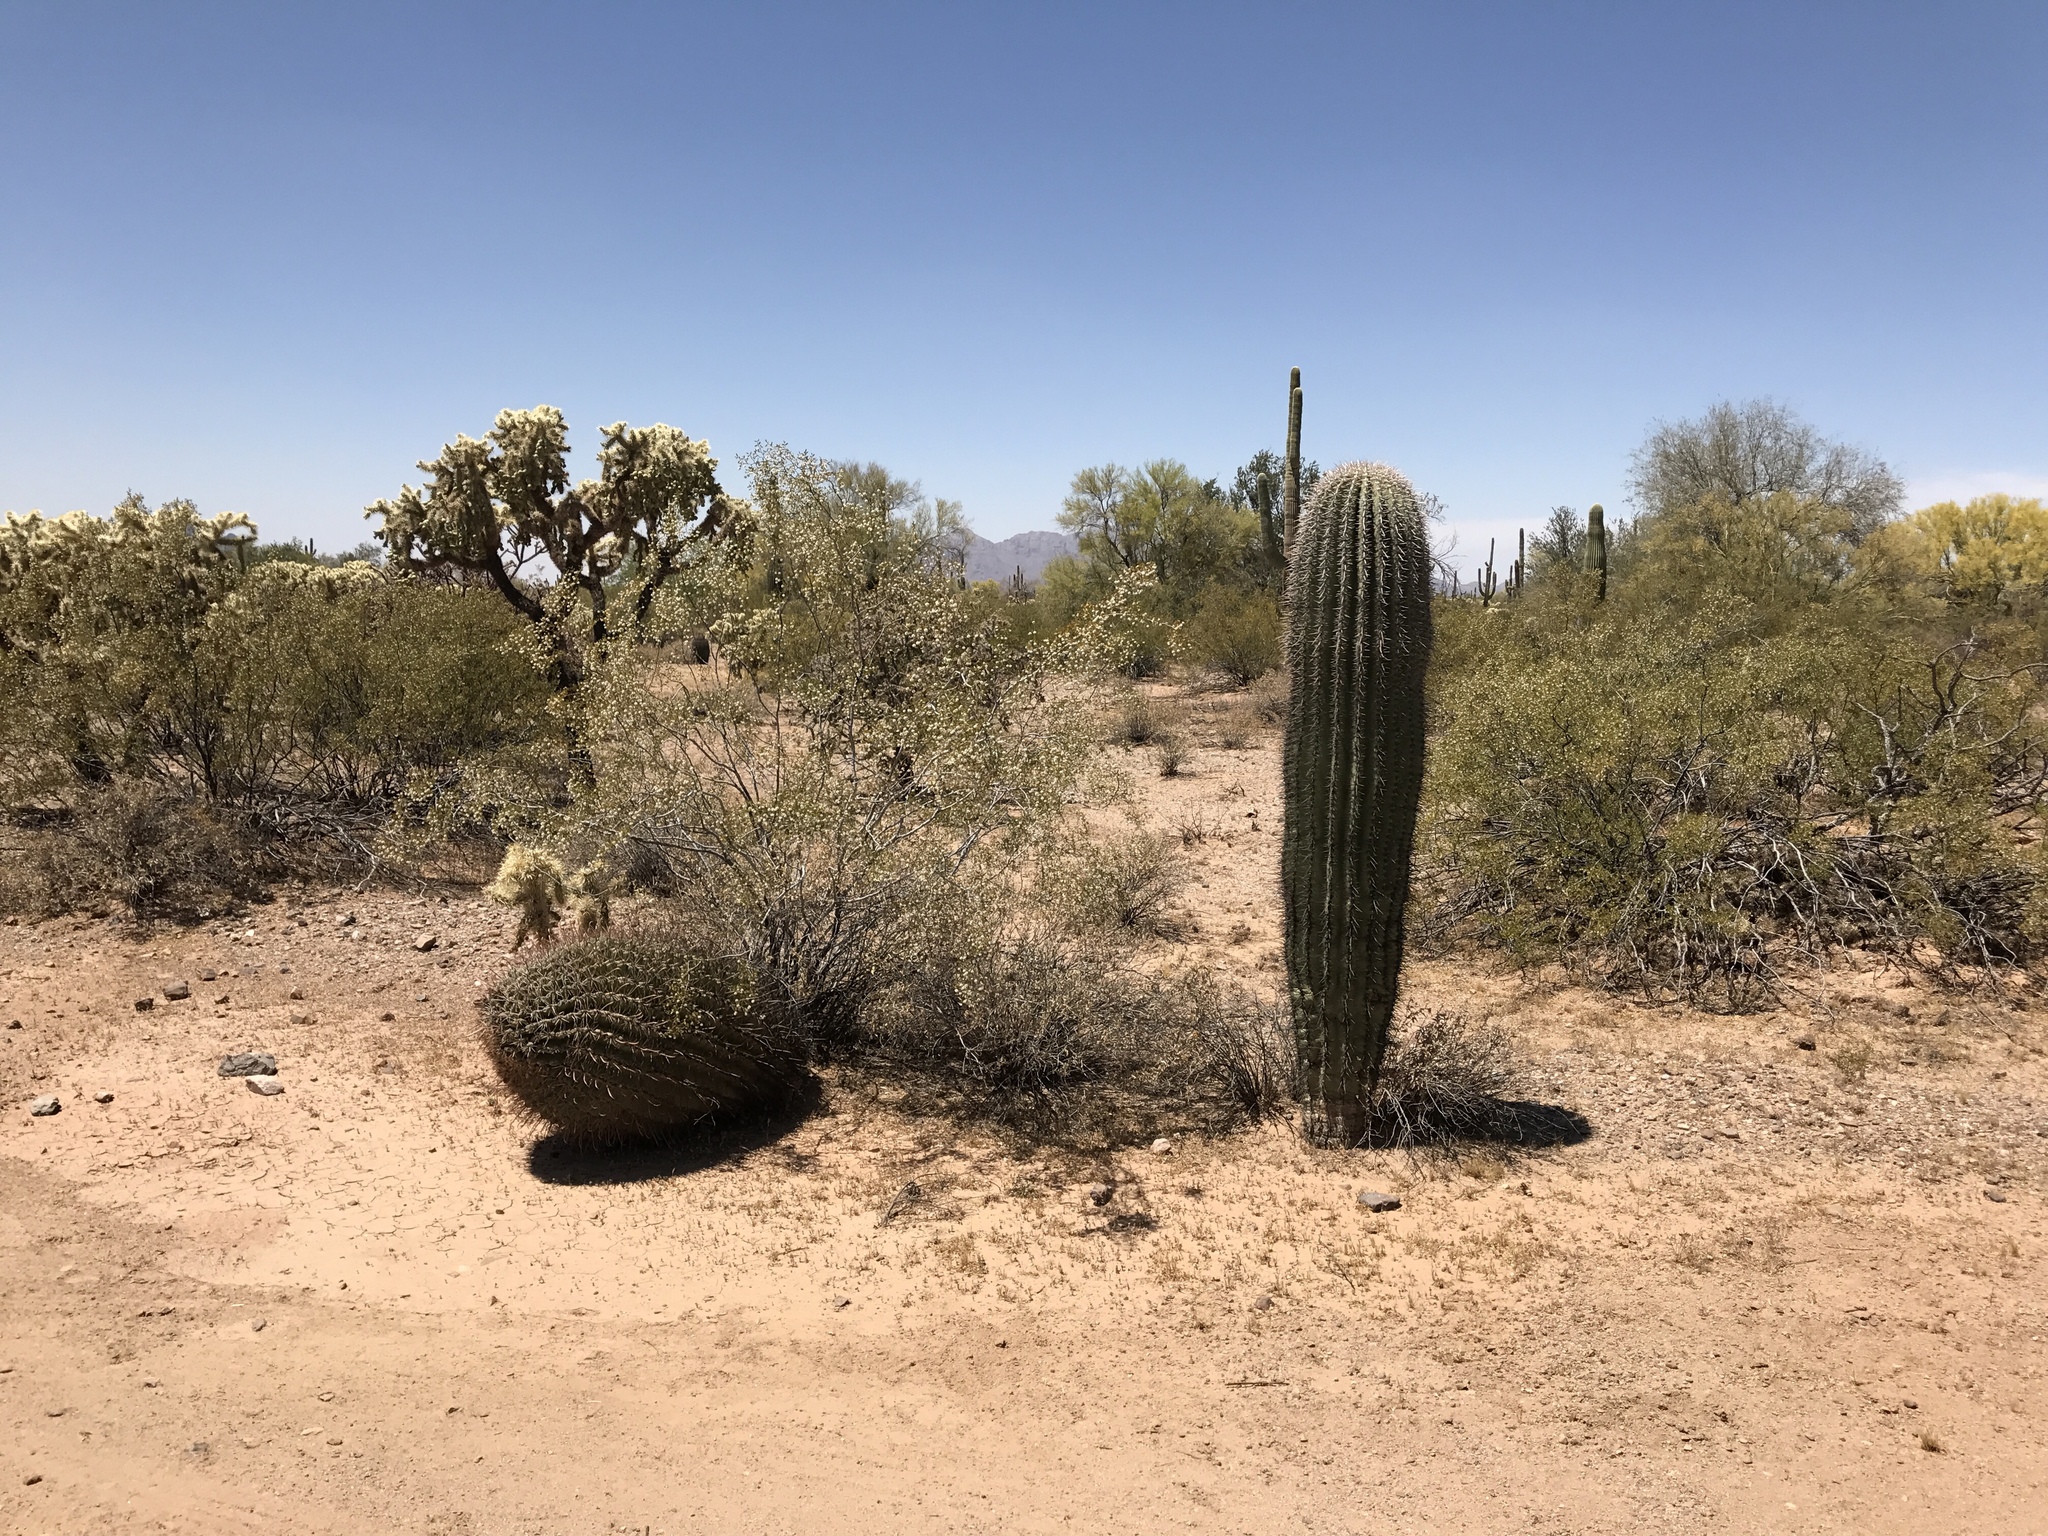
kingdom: Plantae
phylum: Tracheophyta
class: Magnoliopsida
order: Caryophyllales
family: Cactaceae
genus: Ferocactus
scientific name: Ferocactus wislizeni
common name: Candy barrel cactus
